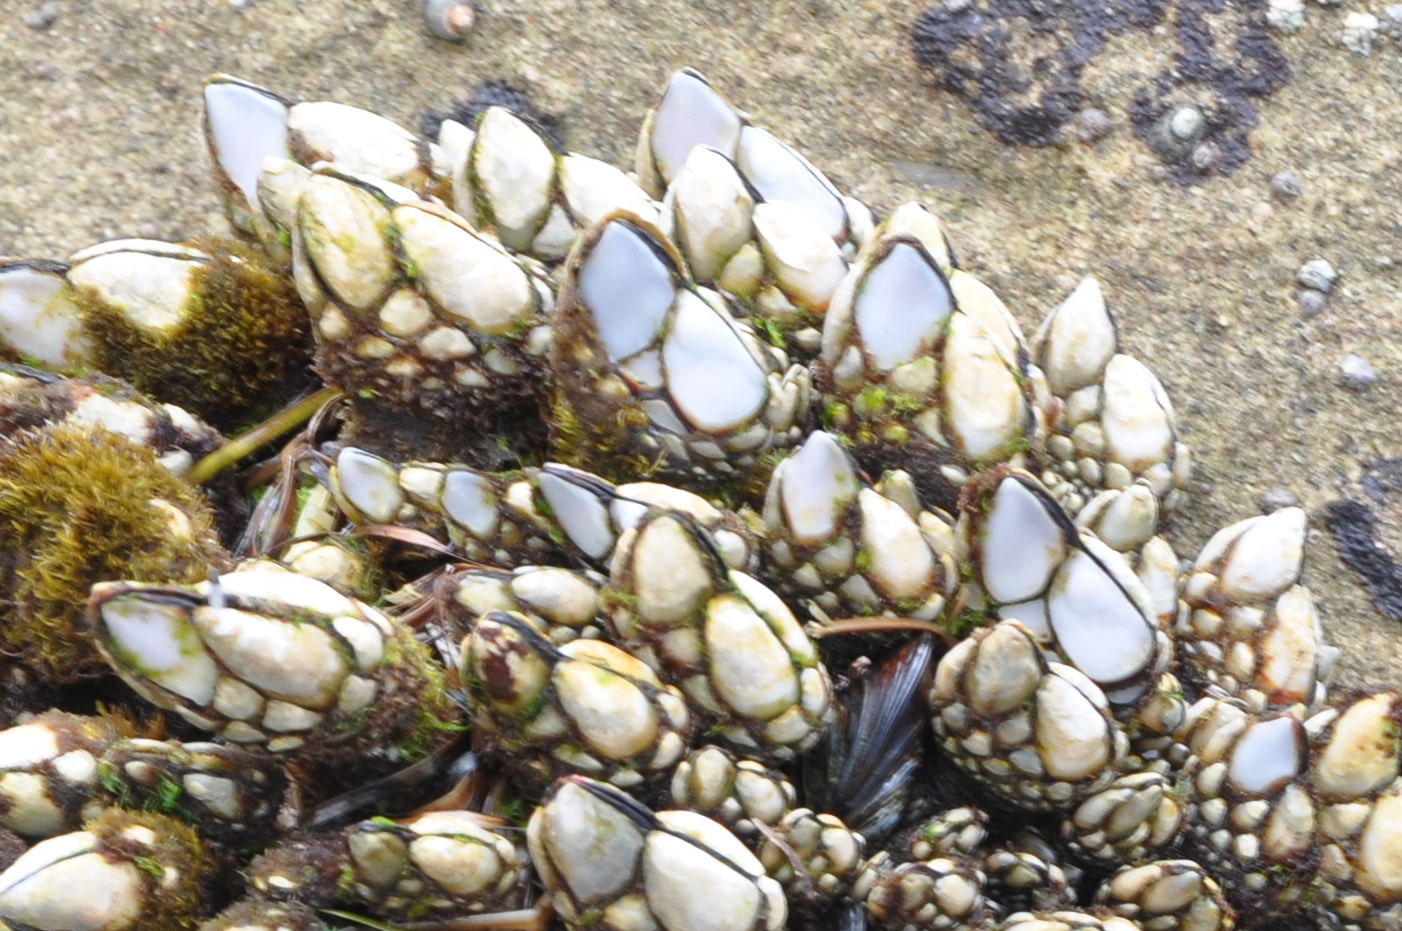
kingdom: Animalia
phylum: Arthropoda
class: Maxillopoda
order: Pedunculata
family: Pollicipedidae
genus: Pollicipes
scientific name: Pollicipes polymerus
